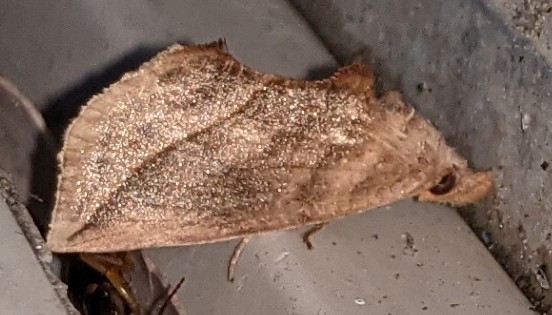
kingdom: Animalia
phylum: Arthropoda
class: Insecta
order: Lepidoptera
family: Erebidae
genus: Calyptra
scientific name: Calyptra canadensis
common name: Canadian owlet
